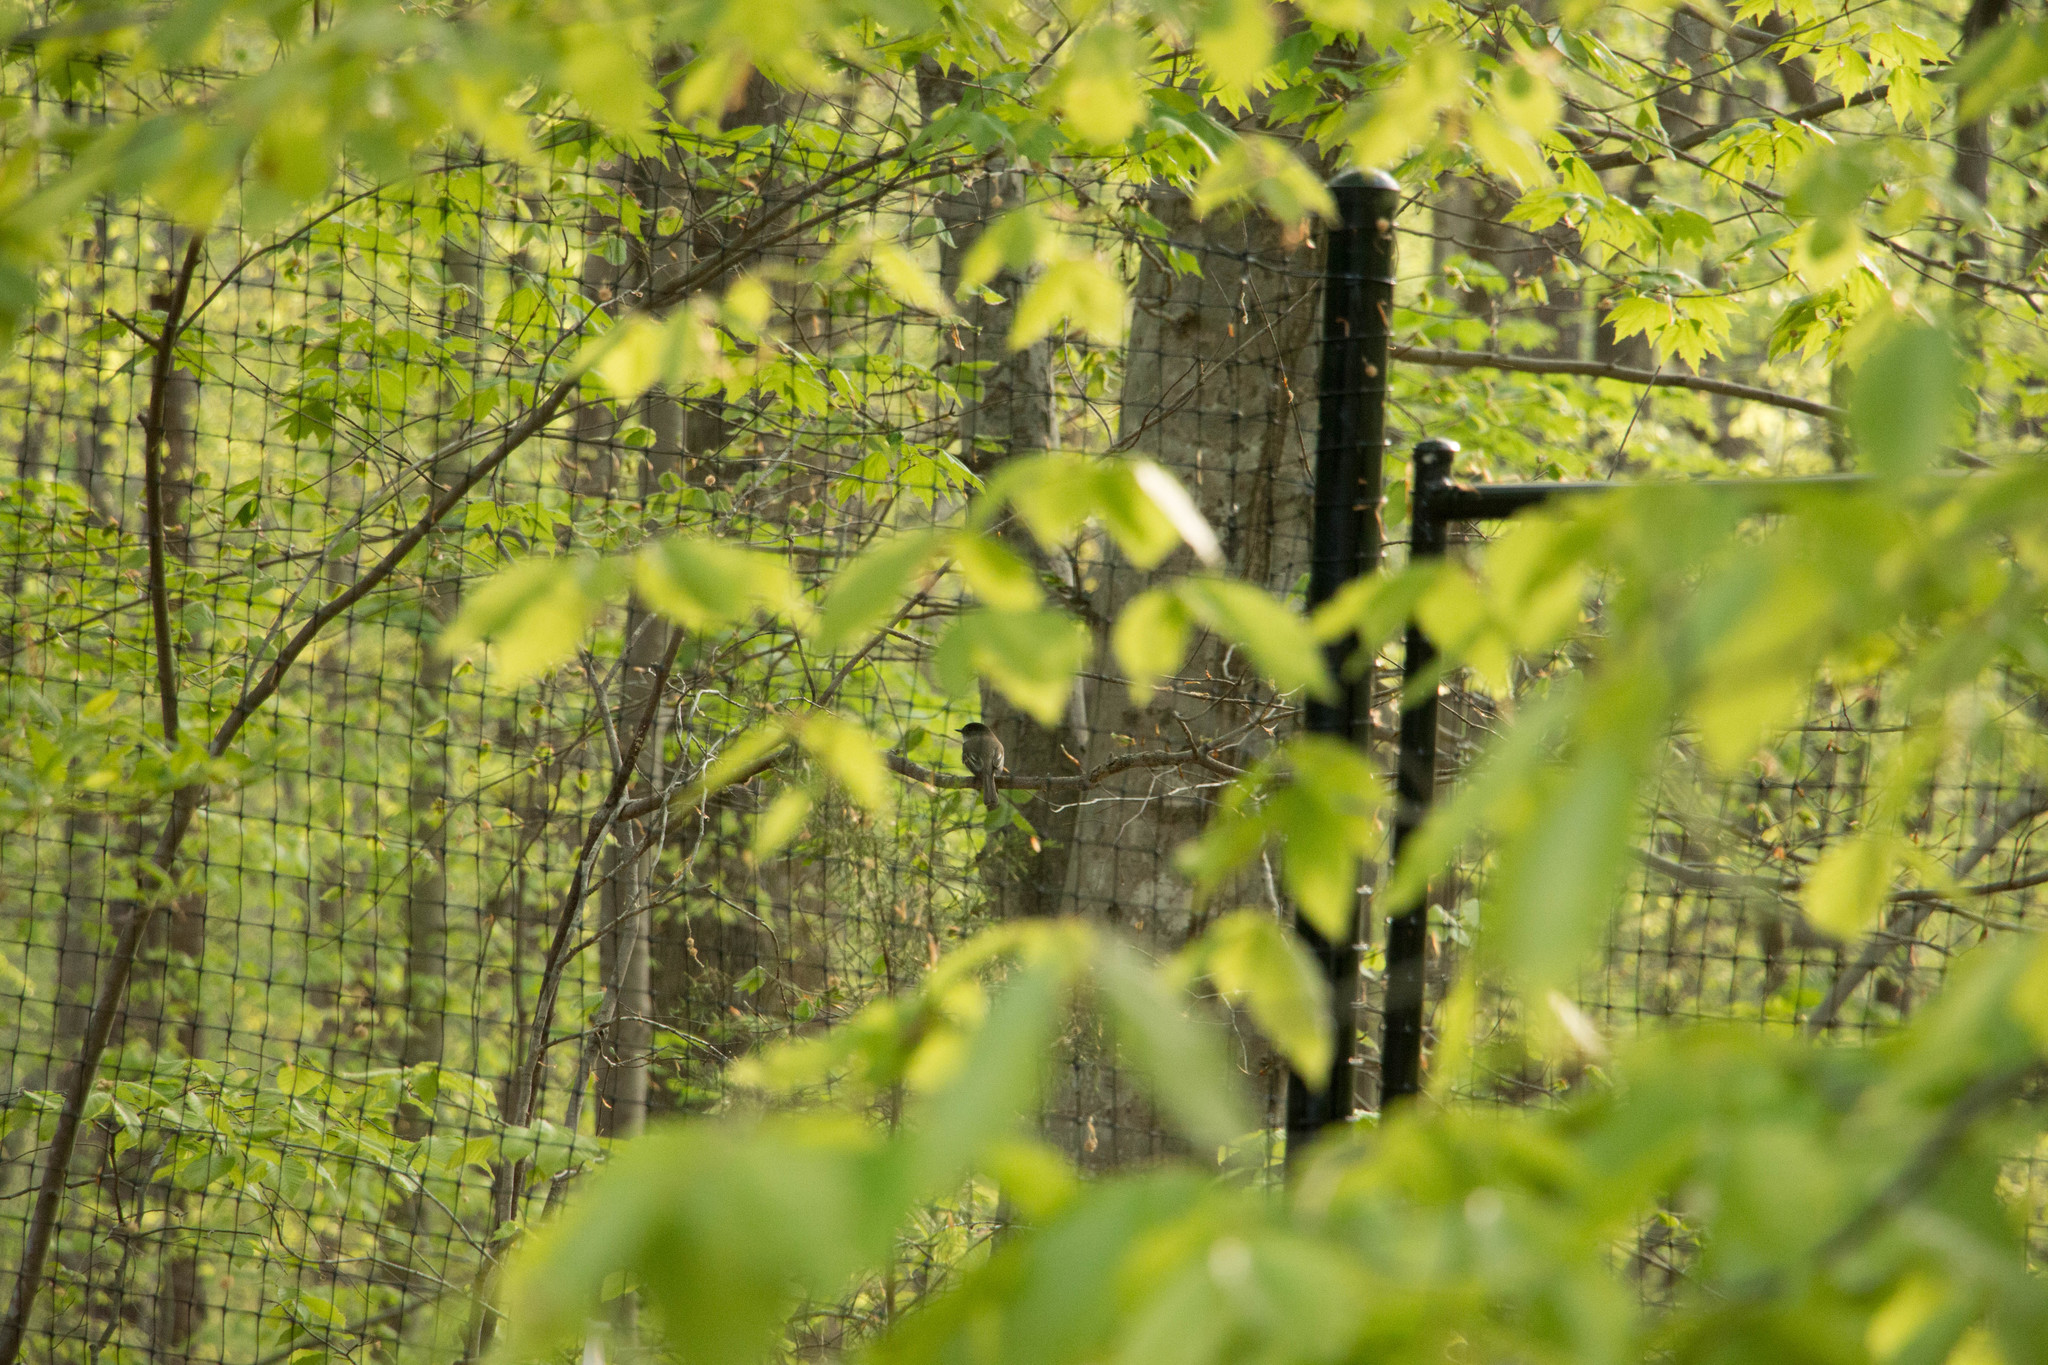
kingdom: Animalia
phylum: Chordata
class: Aves
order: Passeriformes
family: Tyrannidae
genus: Sayornis
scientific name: Sayornis phoebe
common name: Eastern phoebe
